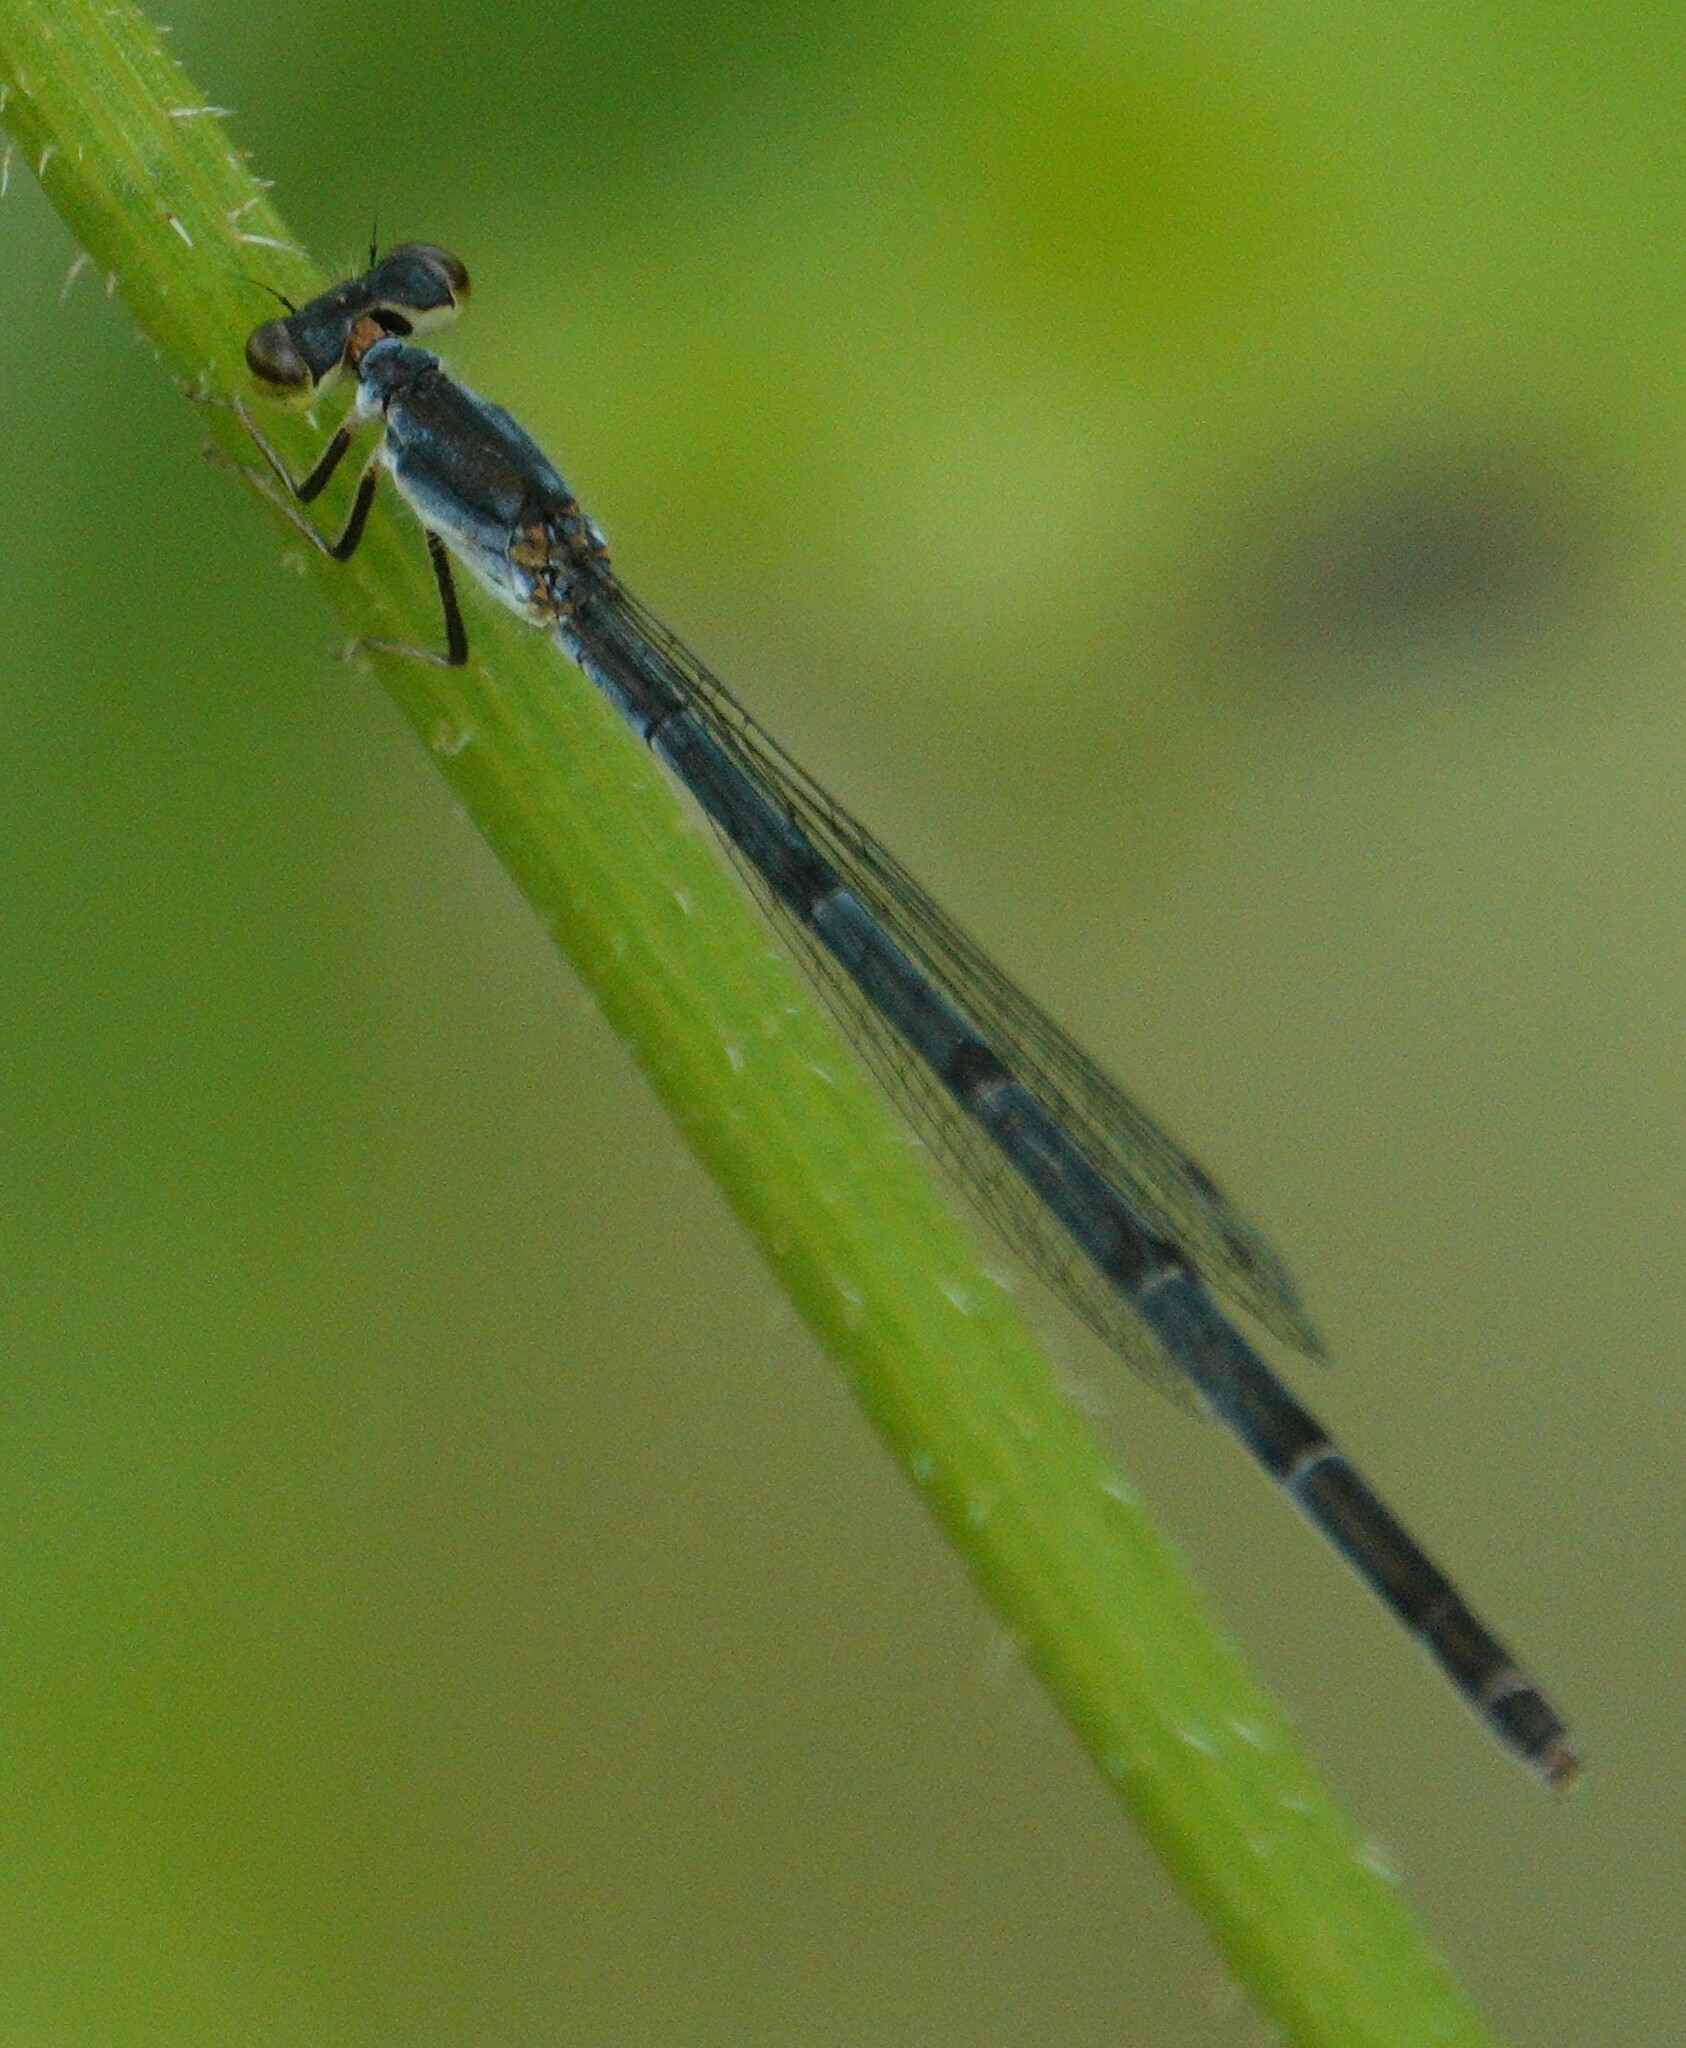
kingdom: Animalia
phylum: Arthropoda
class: Insecta
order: Odonata
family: Coenagrionidae
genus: Ischnura
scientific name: Ischnura posita
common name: Fragile forktail
